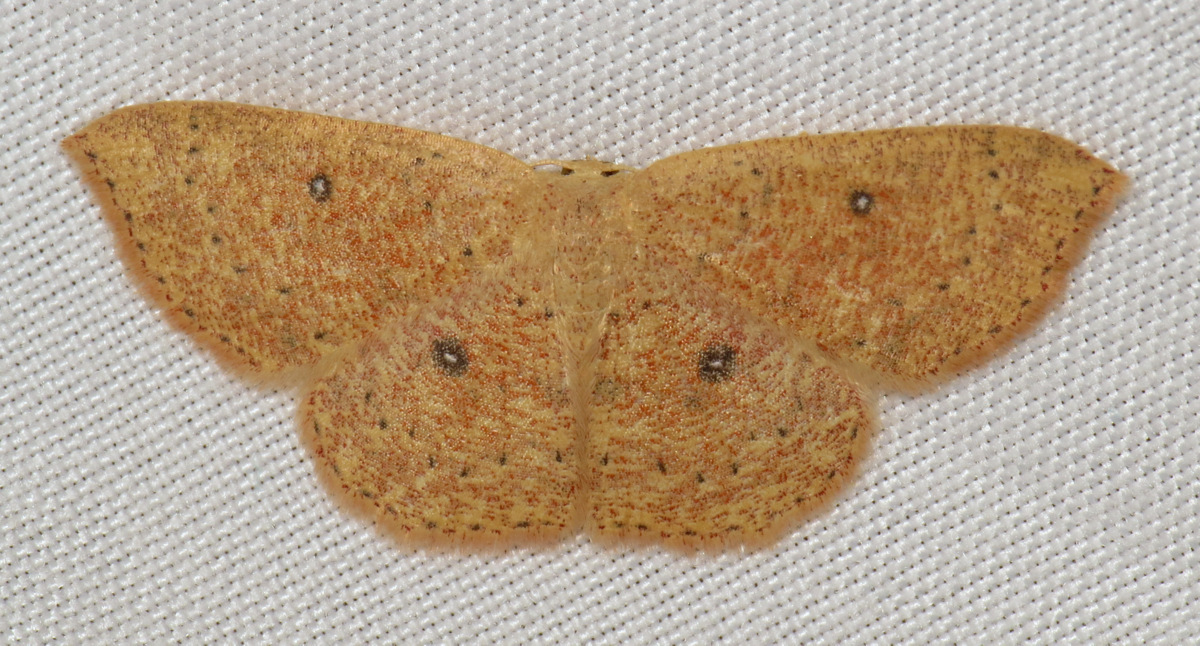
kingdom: Animalia
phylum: Arthropoda
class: Insecta
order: Lepidoptera
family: Geometridae
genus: Cyclophora
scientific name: Cyclophora packardi
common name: Packard's wave
